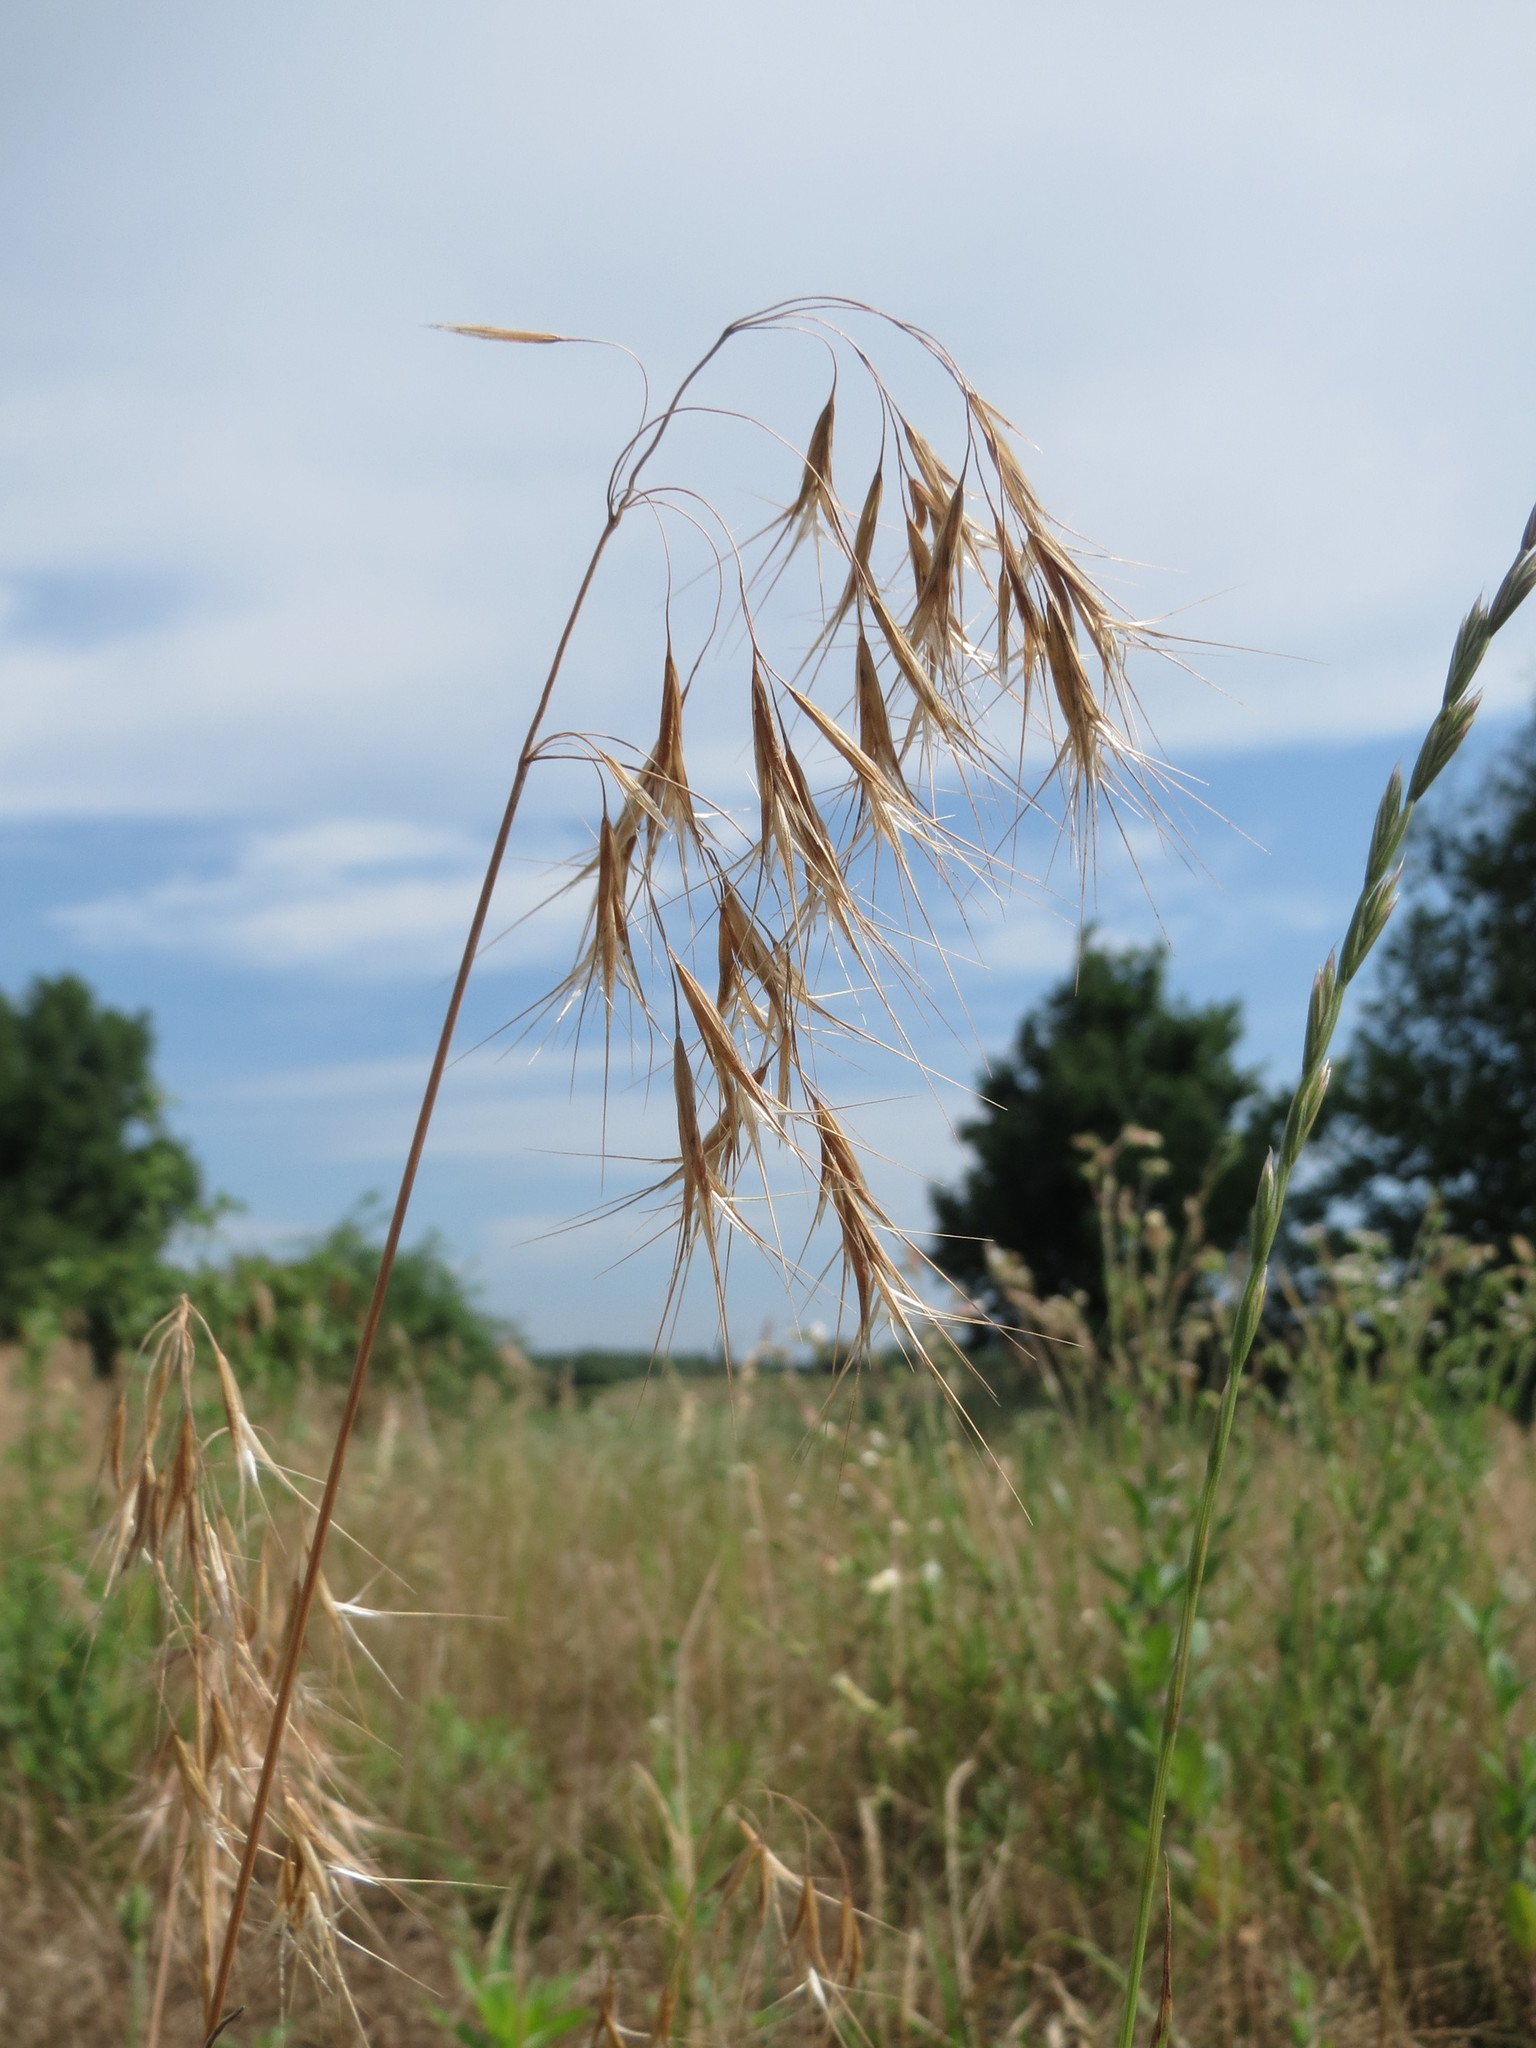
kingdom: Plantae
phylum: Tracheophyta
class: Liliopsida
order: Poales
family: Poaceae
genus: Bromus
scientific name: Bromus tectorum
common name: Cheatgrass
